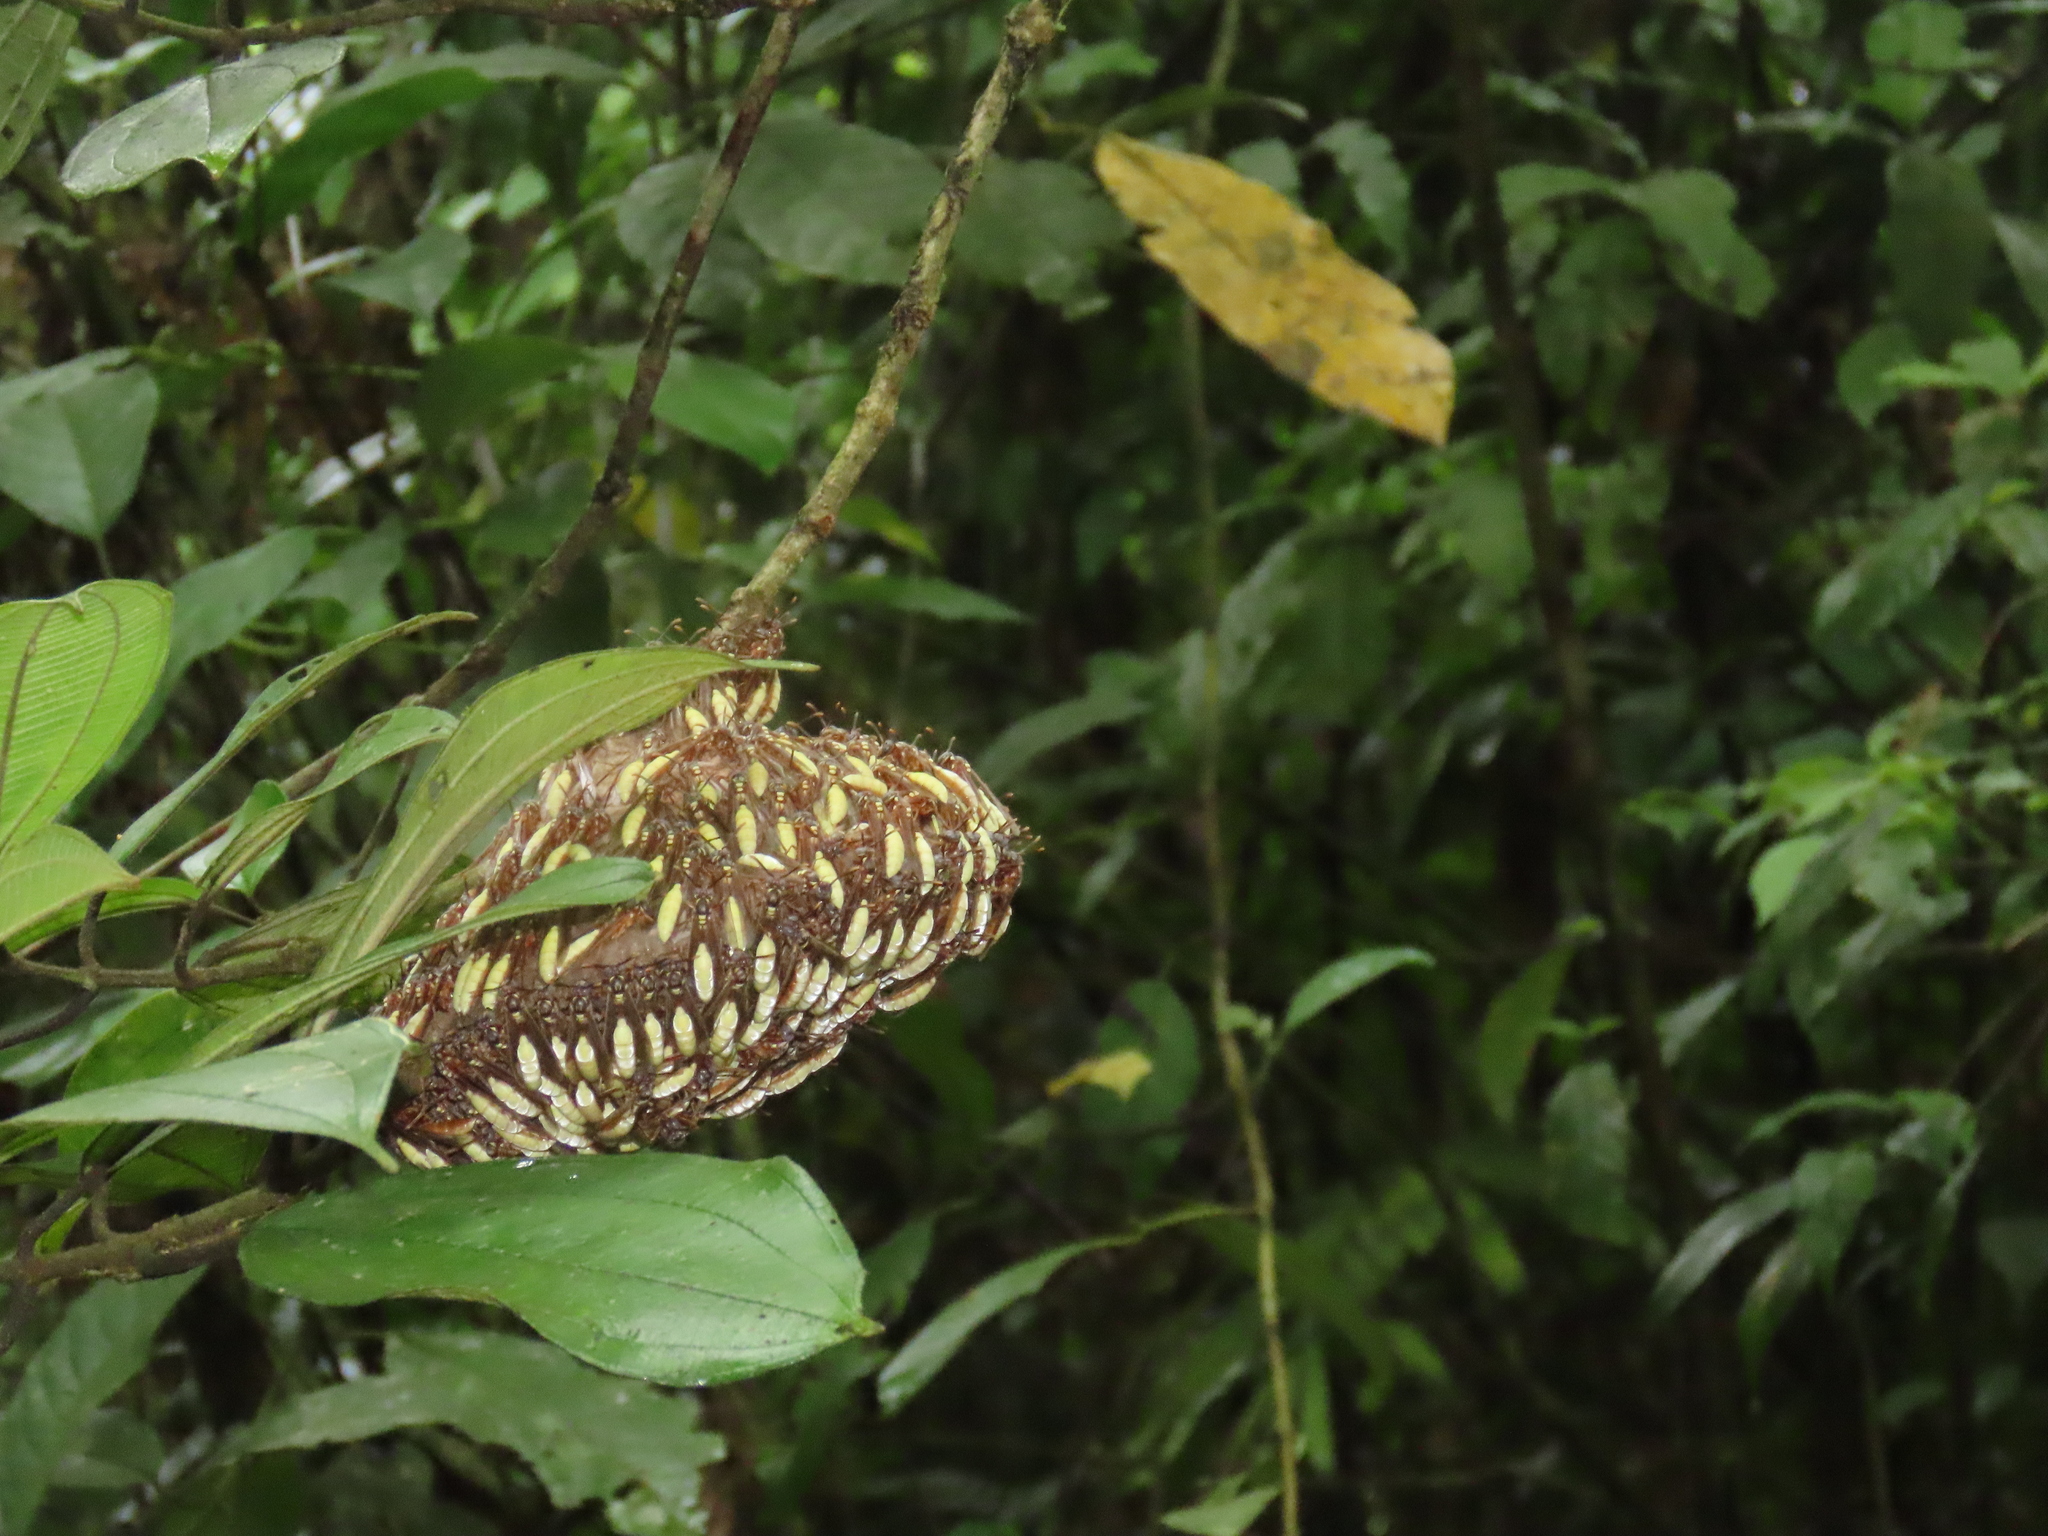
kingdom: Animalia
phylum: Arthropoda
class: Insecta
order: Hymenoptera
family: Vespidae
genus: Apoica
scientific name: Apoica pallens
